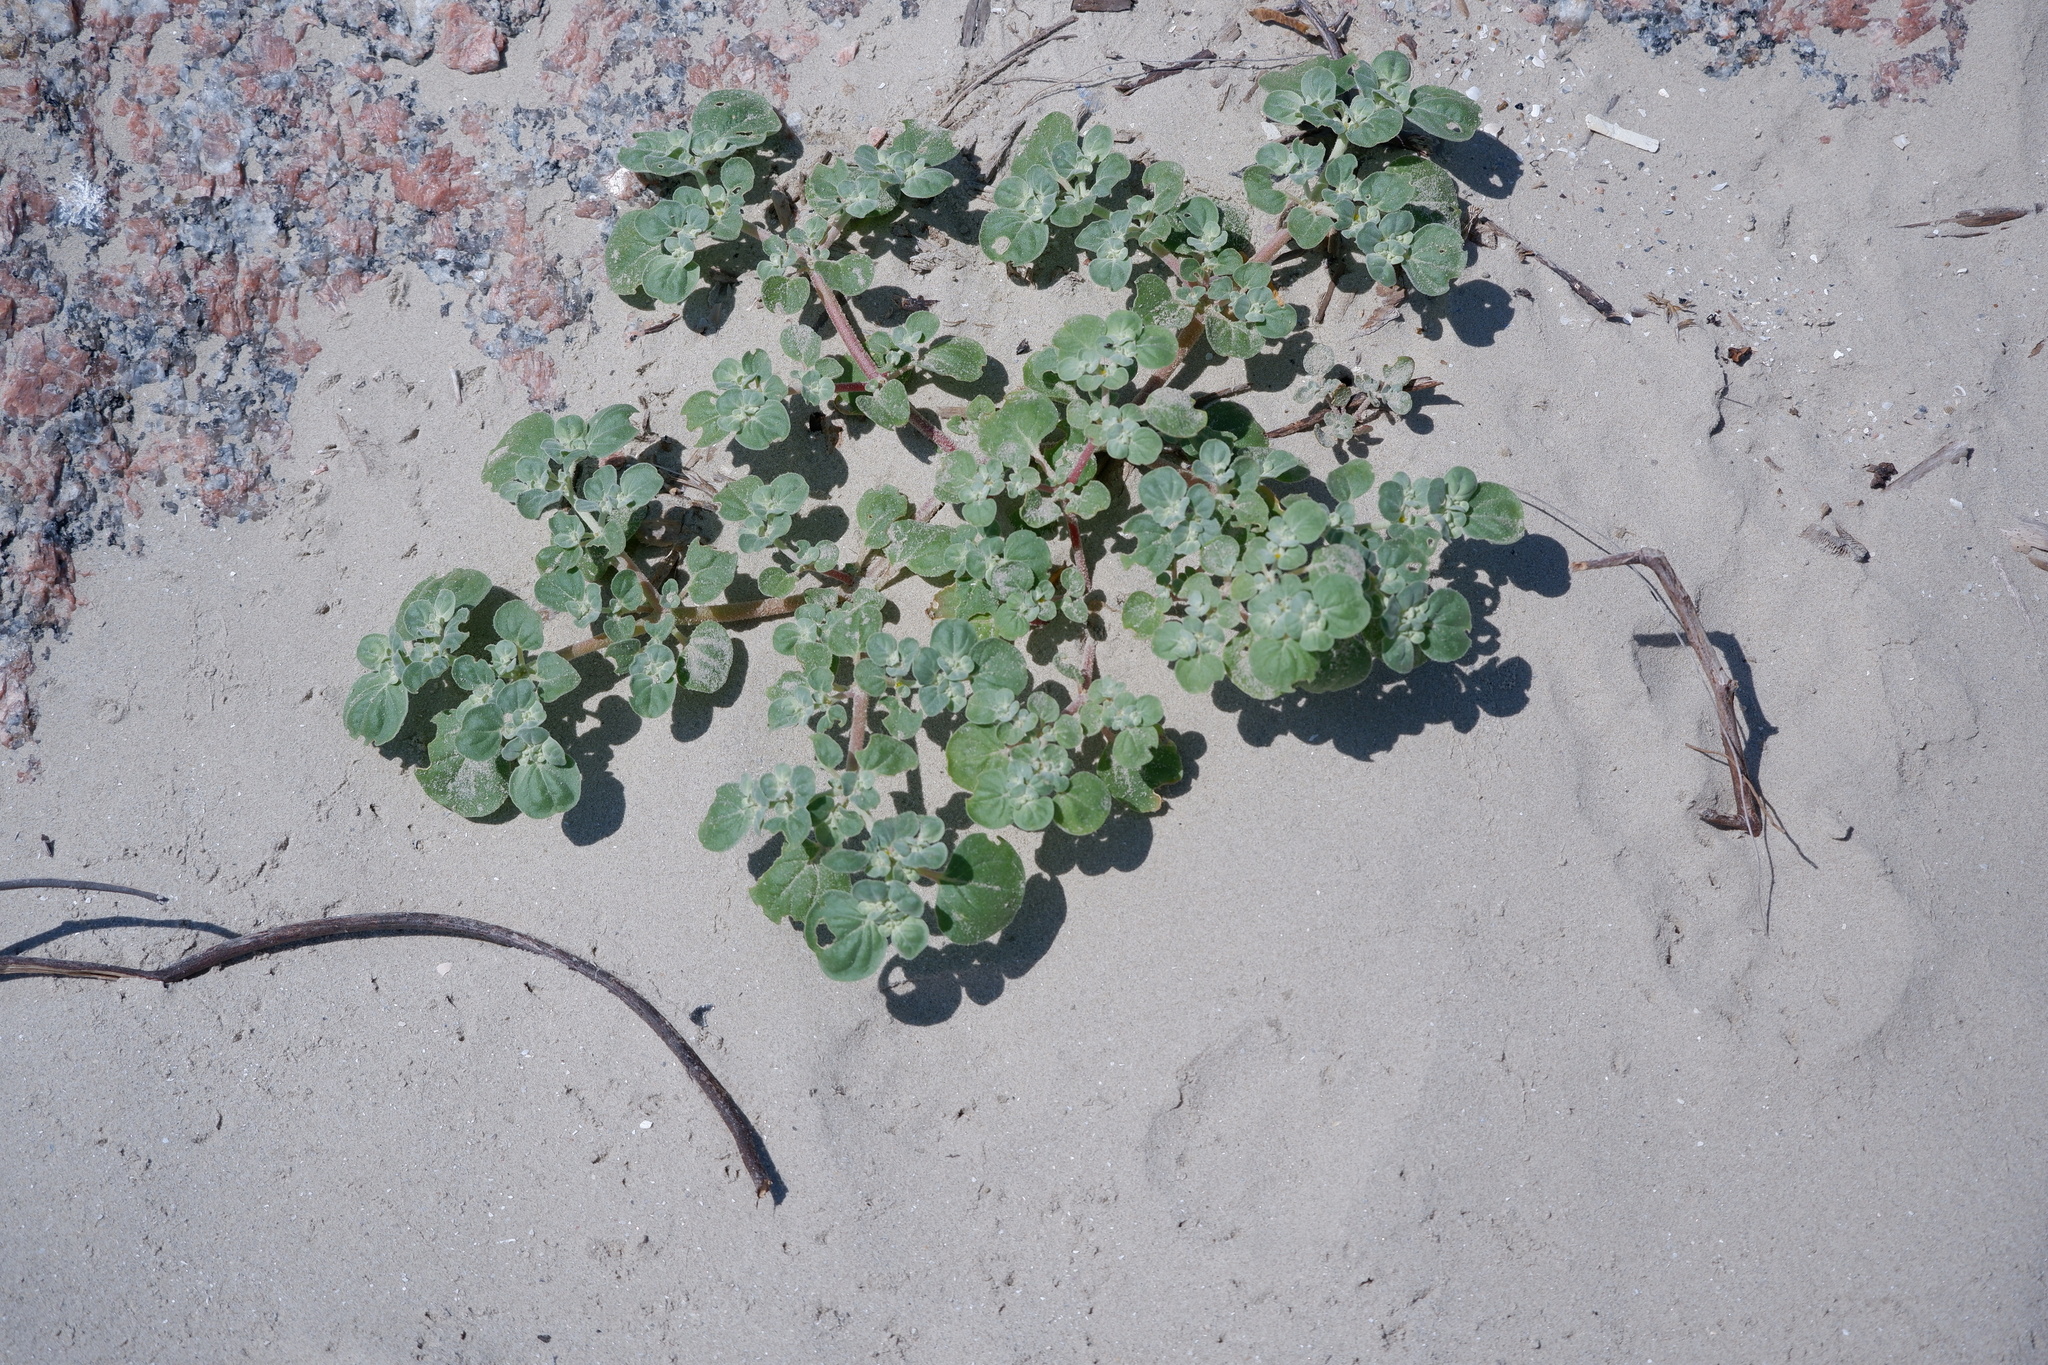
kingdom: Plantae
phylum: Tracheophyta
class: Magnoliopsida
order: Caryophyllales
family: Amaranthaceae
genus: Tidestromia
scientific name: Tidestromia lanuginosa
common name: Woolly tidestromia
